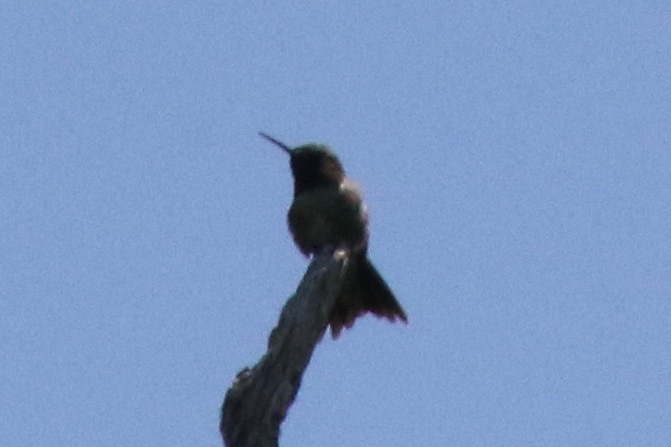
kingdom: Animalia
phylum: Chordata
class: Aves
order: Apodiformes
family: Trochilidae
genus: Archilochus
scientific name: Archilochus colubris
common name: Ruby-throated hummingbird
